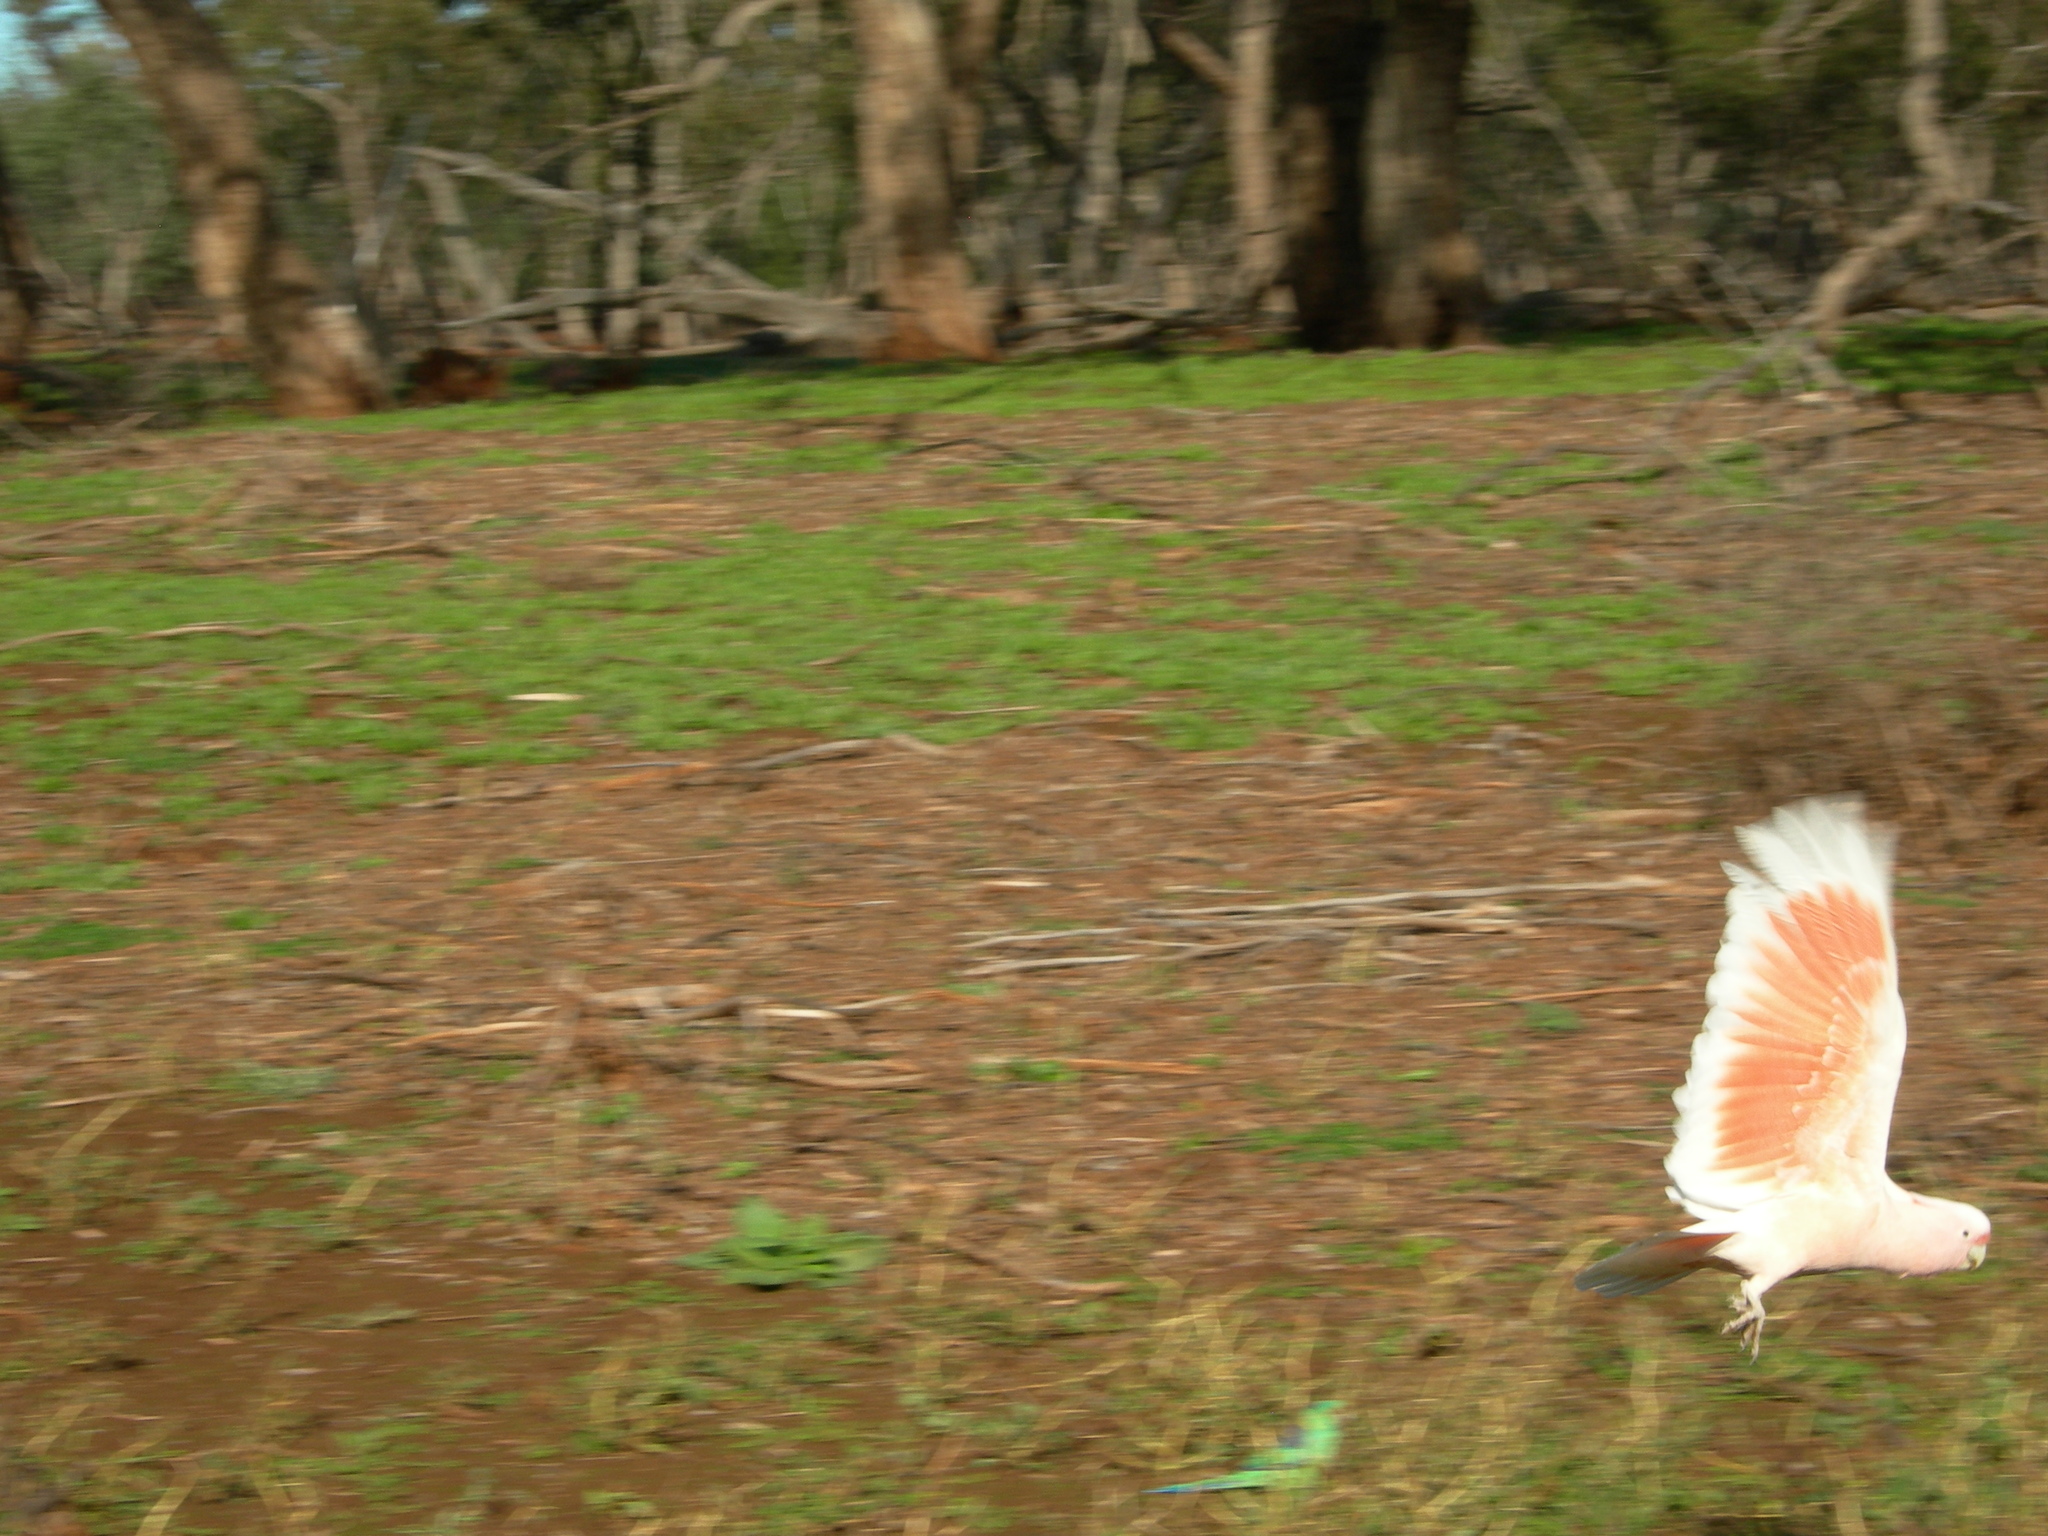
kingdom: Animalia
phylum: Chordata
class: Aves
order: Psittaciformes
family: Psittacidae
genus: Cacatua
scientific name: Cacatua leadbeateri
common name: Major mitchell's cockatoo
